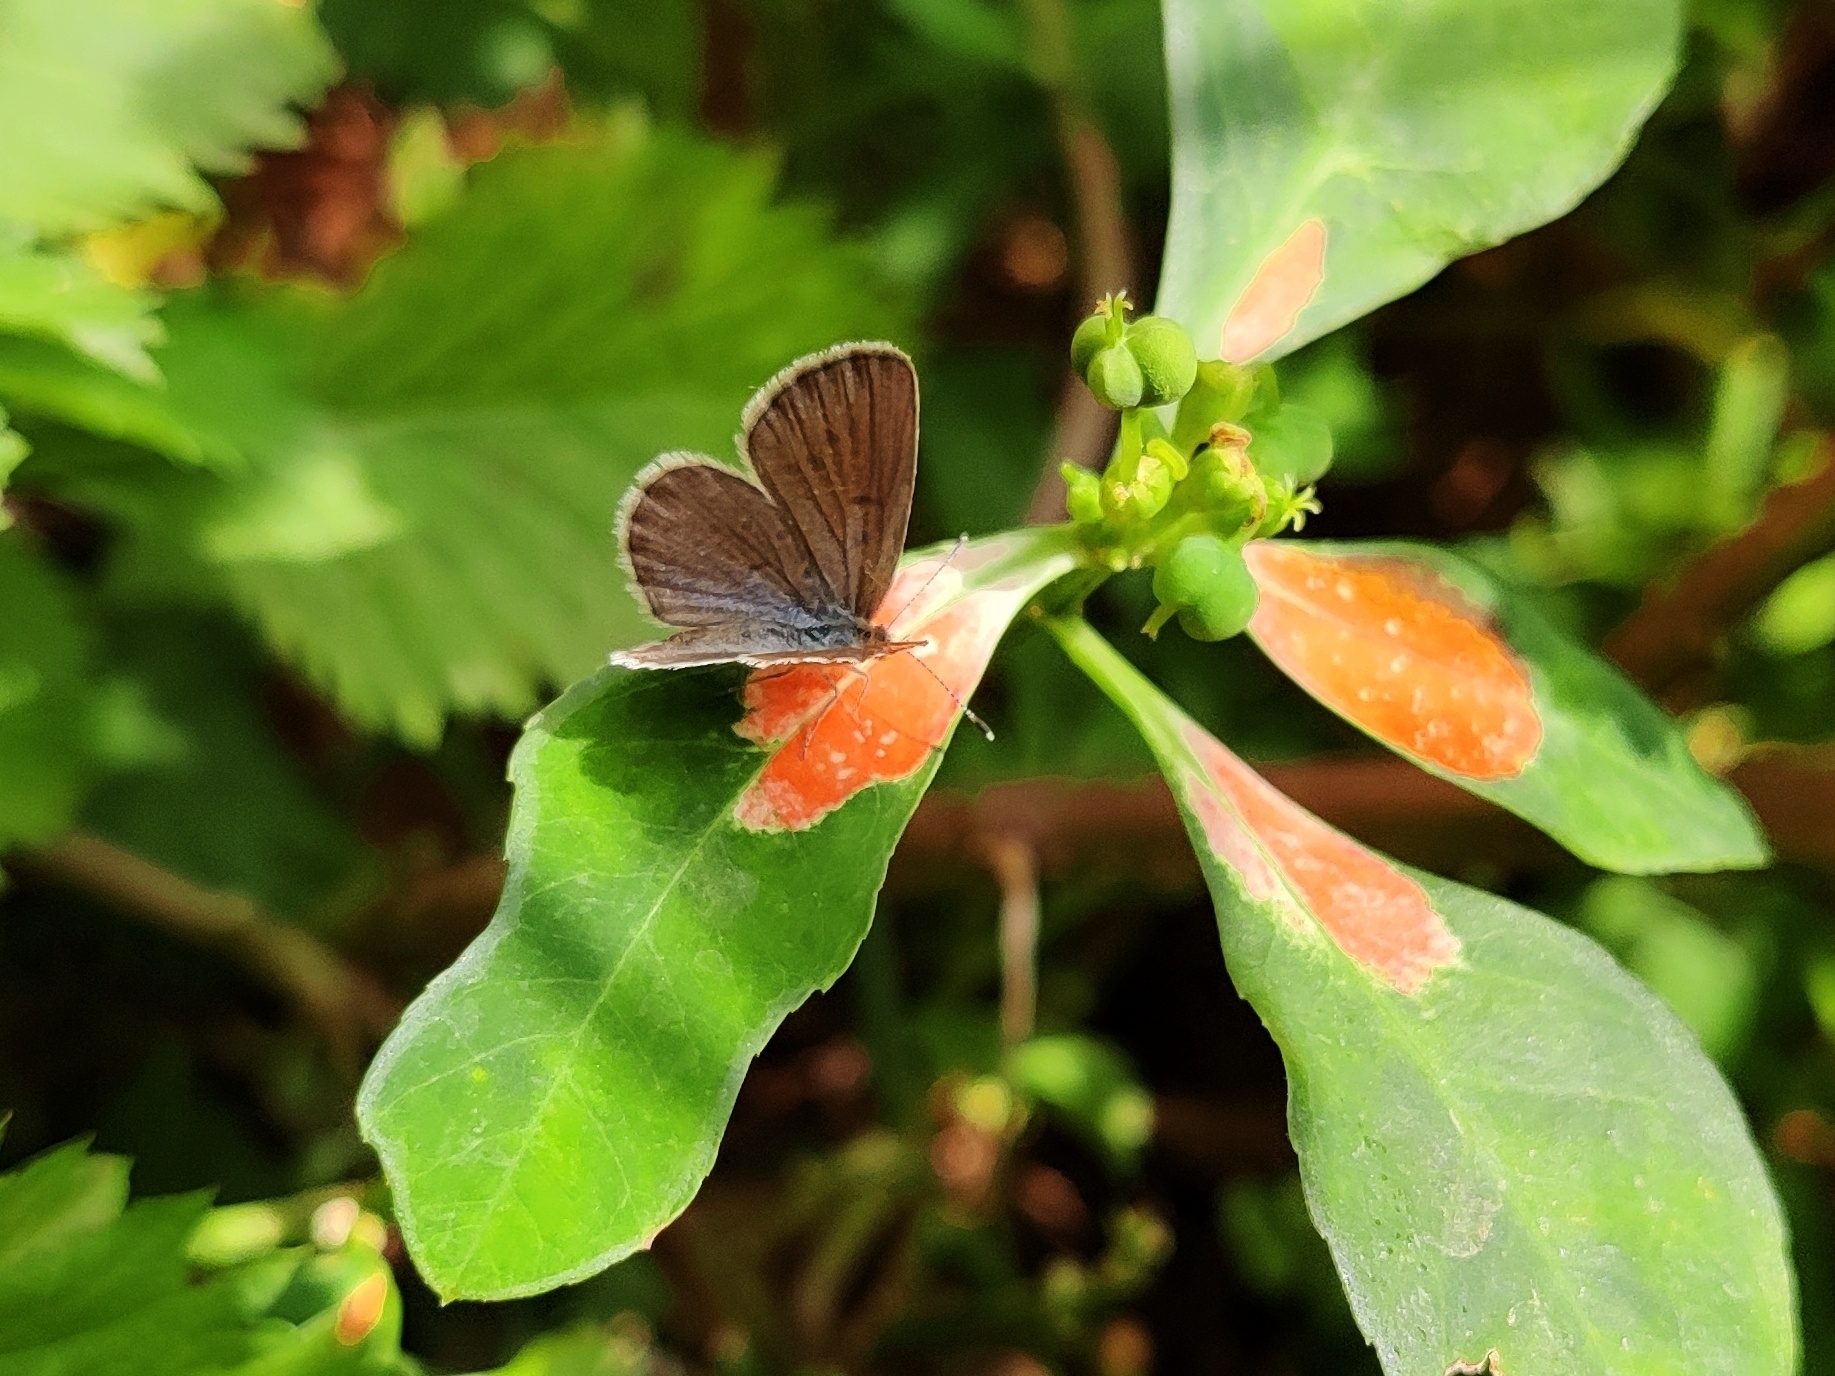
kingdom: Animalia
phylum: Arthropoda
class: Insecta
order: Lepidoptera
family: Lycaenidae
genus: Zizeeria
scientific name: Zizeeria karsandra
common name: Dark grass blue
